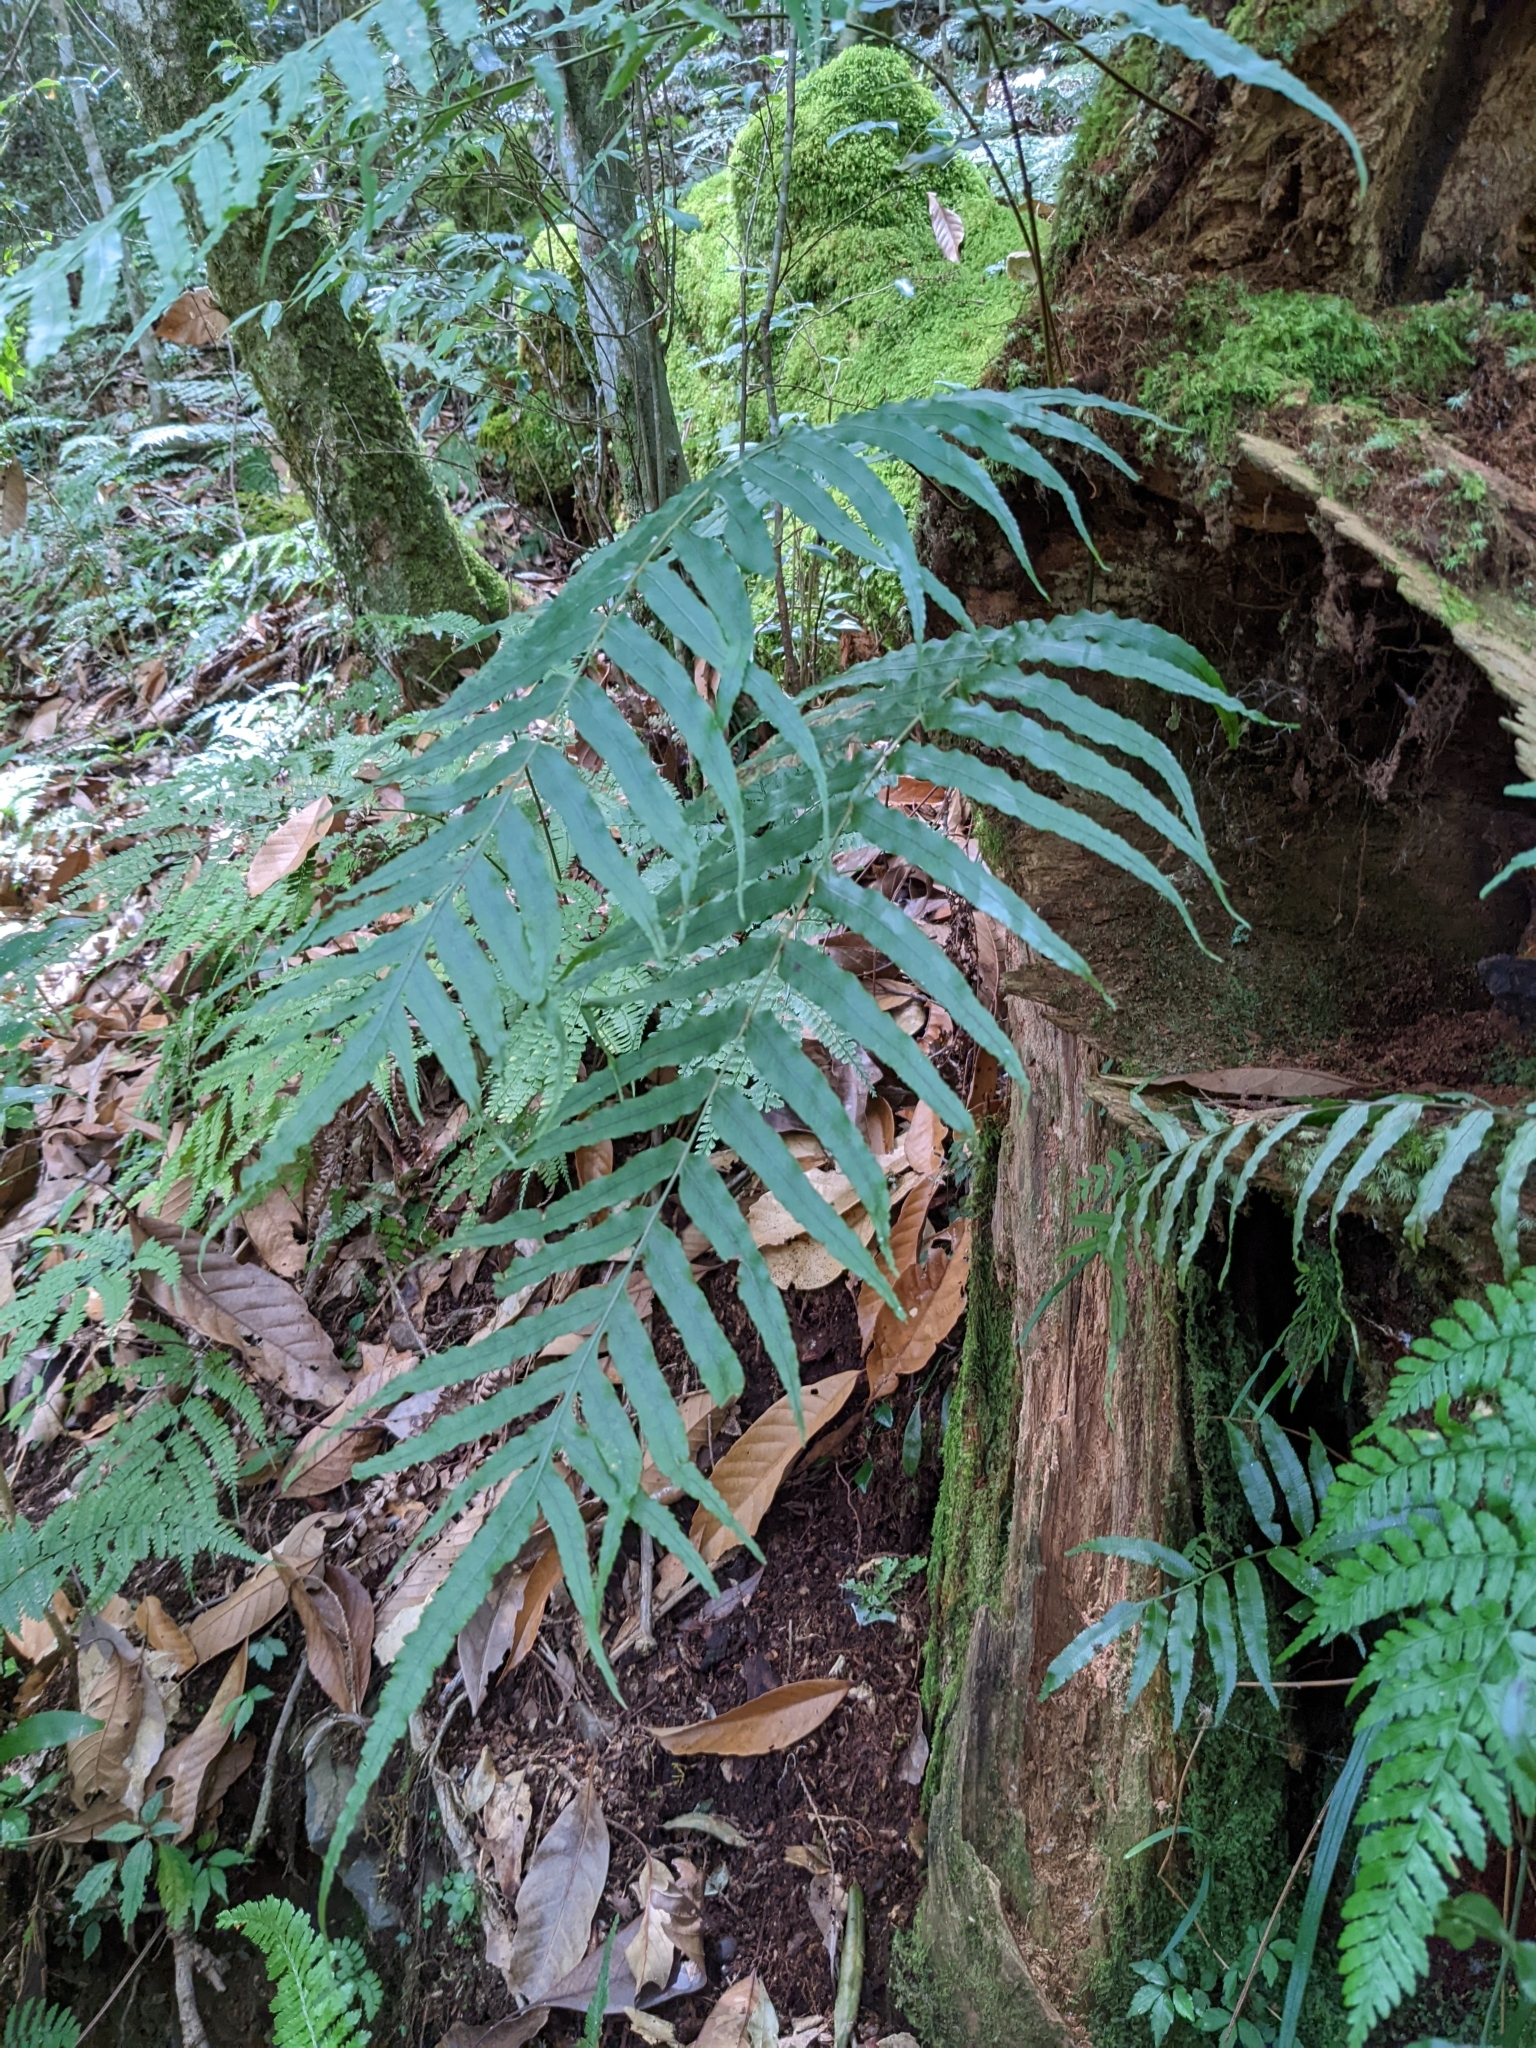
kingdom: Plantae
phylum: Tracheophyta
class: Polypodiopsida
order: Polypodiales
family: Polypodiaceae
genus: Goniophlebium
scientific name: Goniophlebium mengtzeense
